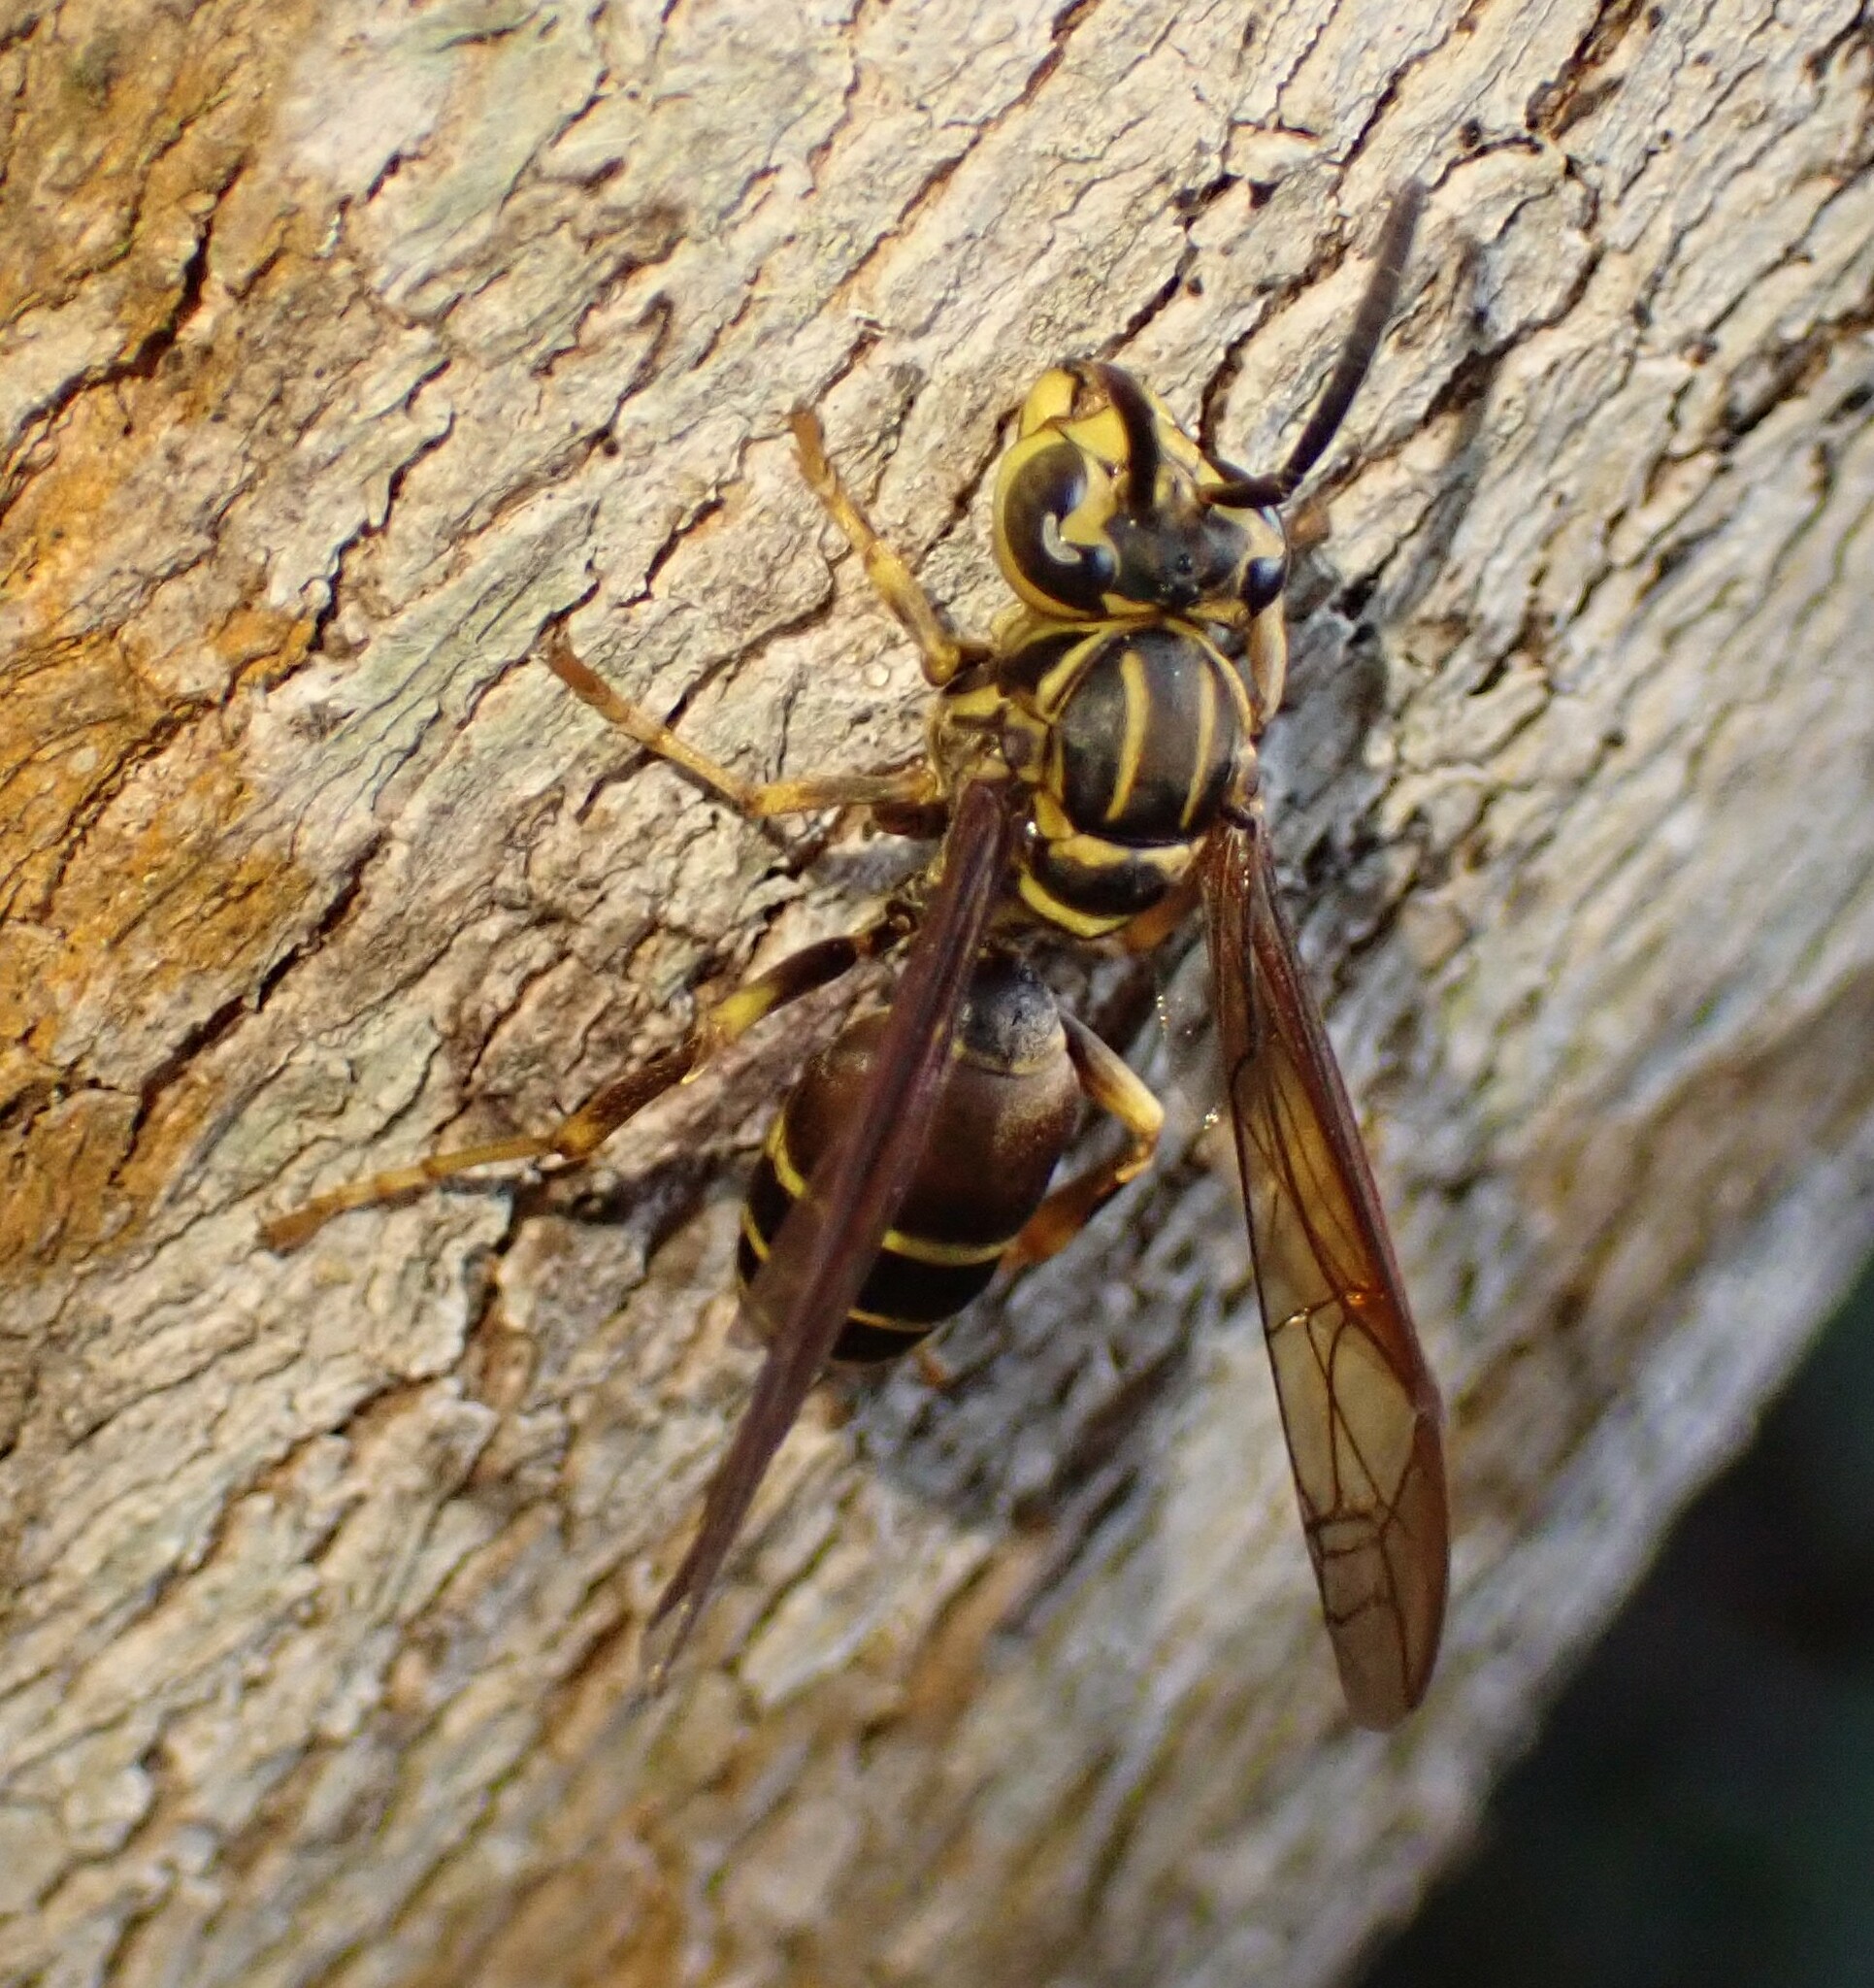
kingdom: Animalia
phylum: Arthropoda
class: Insecta
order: Hymenoptera
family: Vespidae
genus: Parachartergus
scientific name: Parachartergus vespiceps
